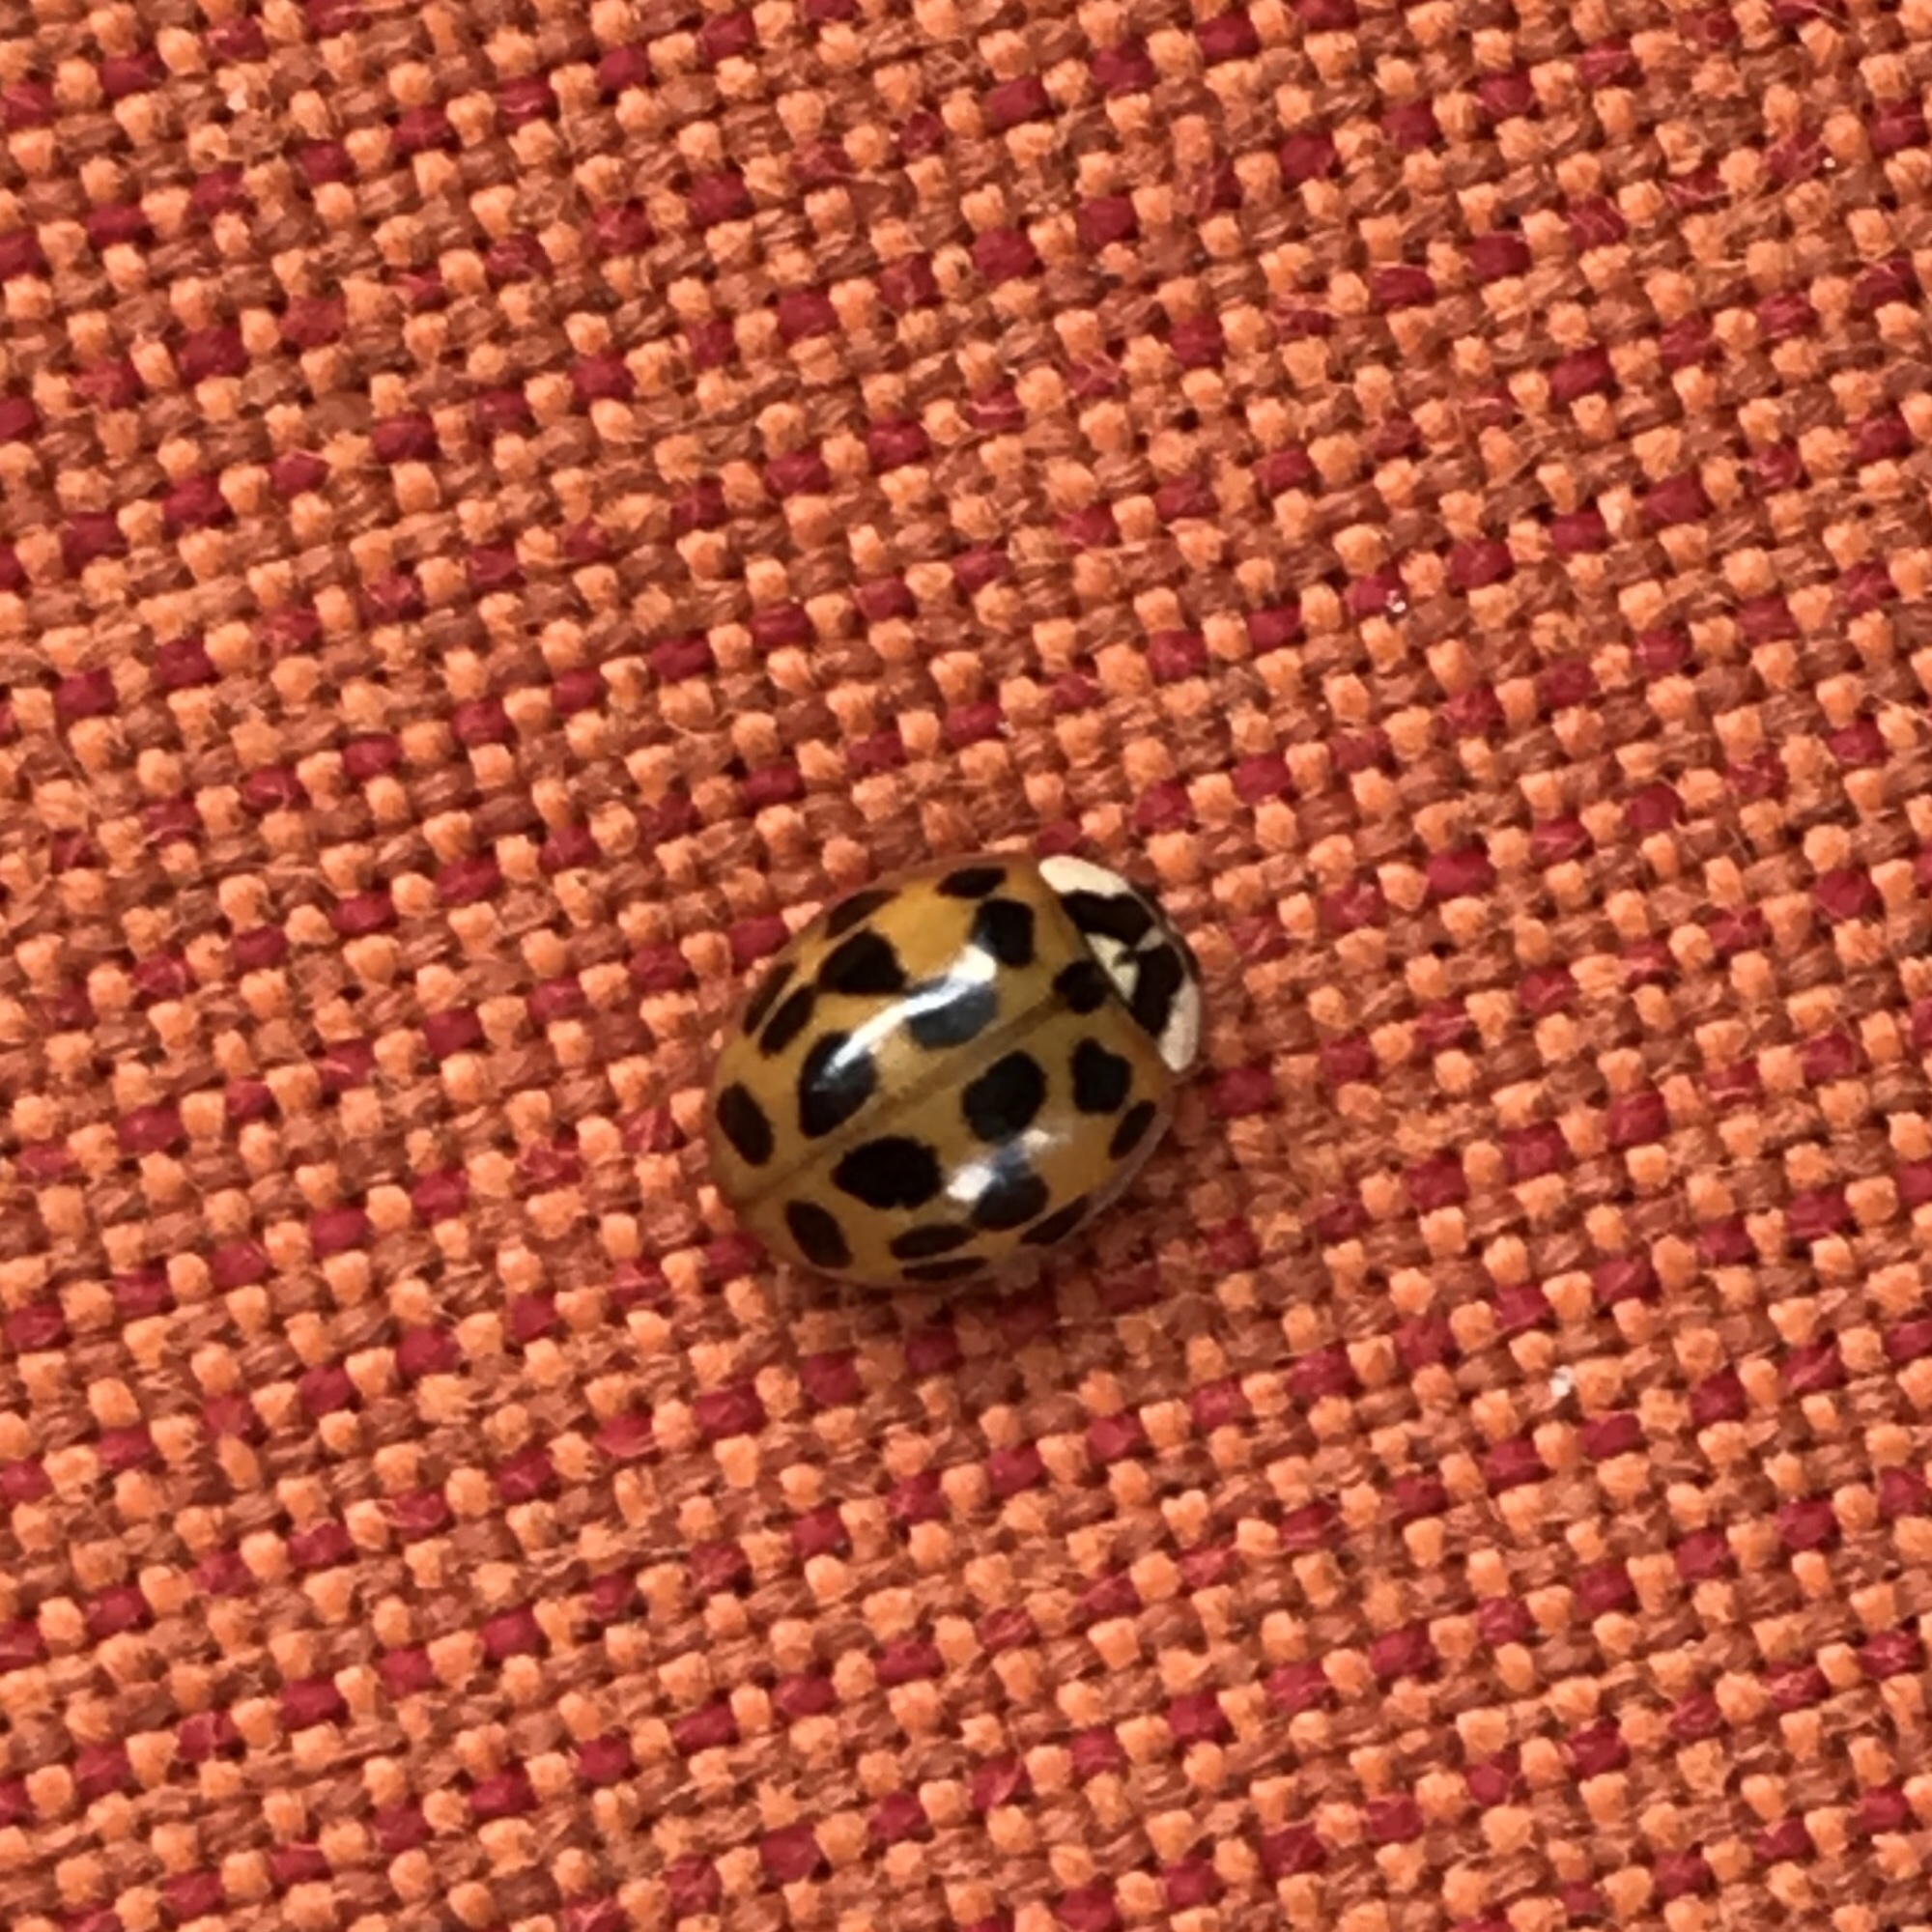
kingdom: Animalia
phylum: Arthropoda
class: Insecta
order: Coleoptera
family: Coccinellidae
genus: Harmonia
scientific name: Harmonia axyridis
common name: Harlequin ladybird
